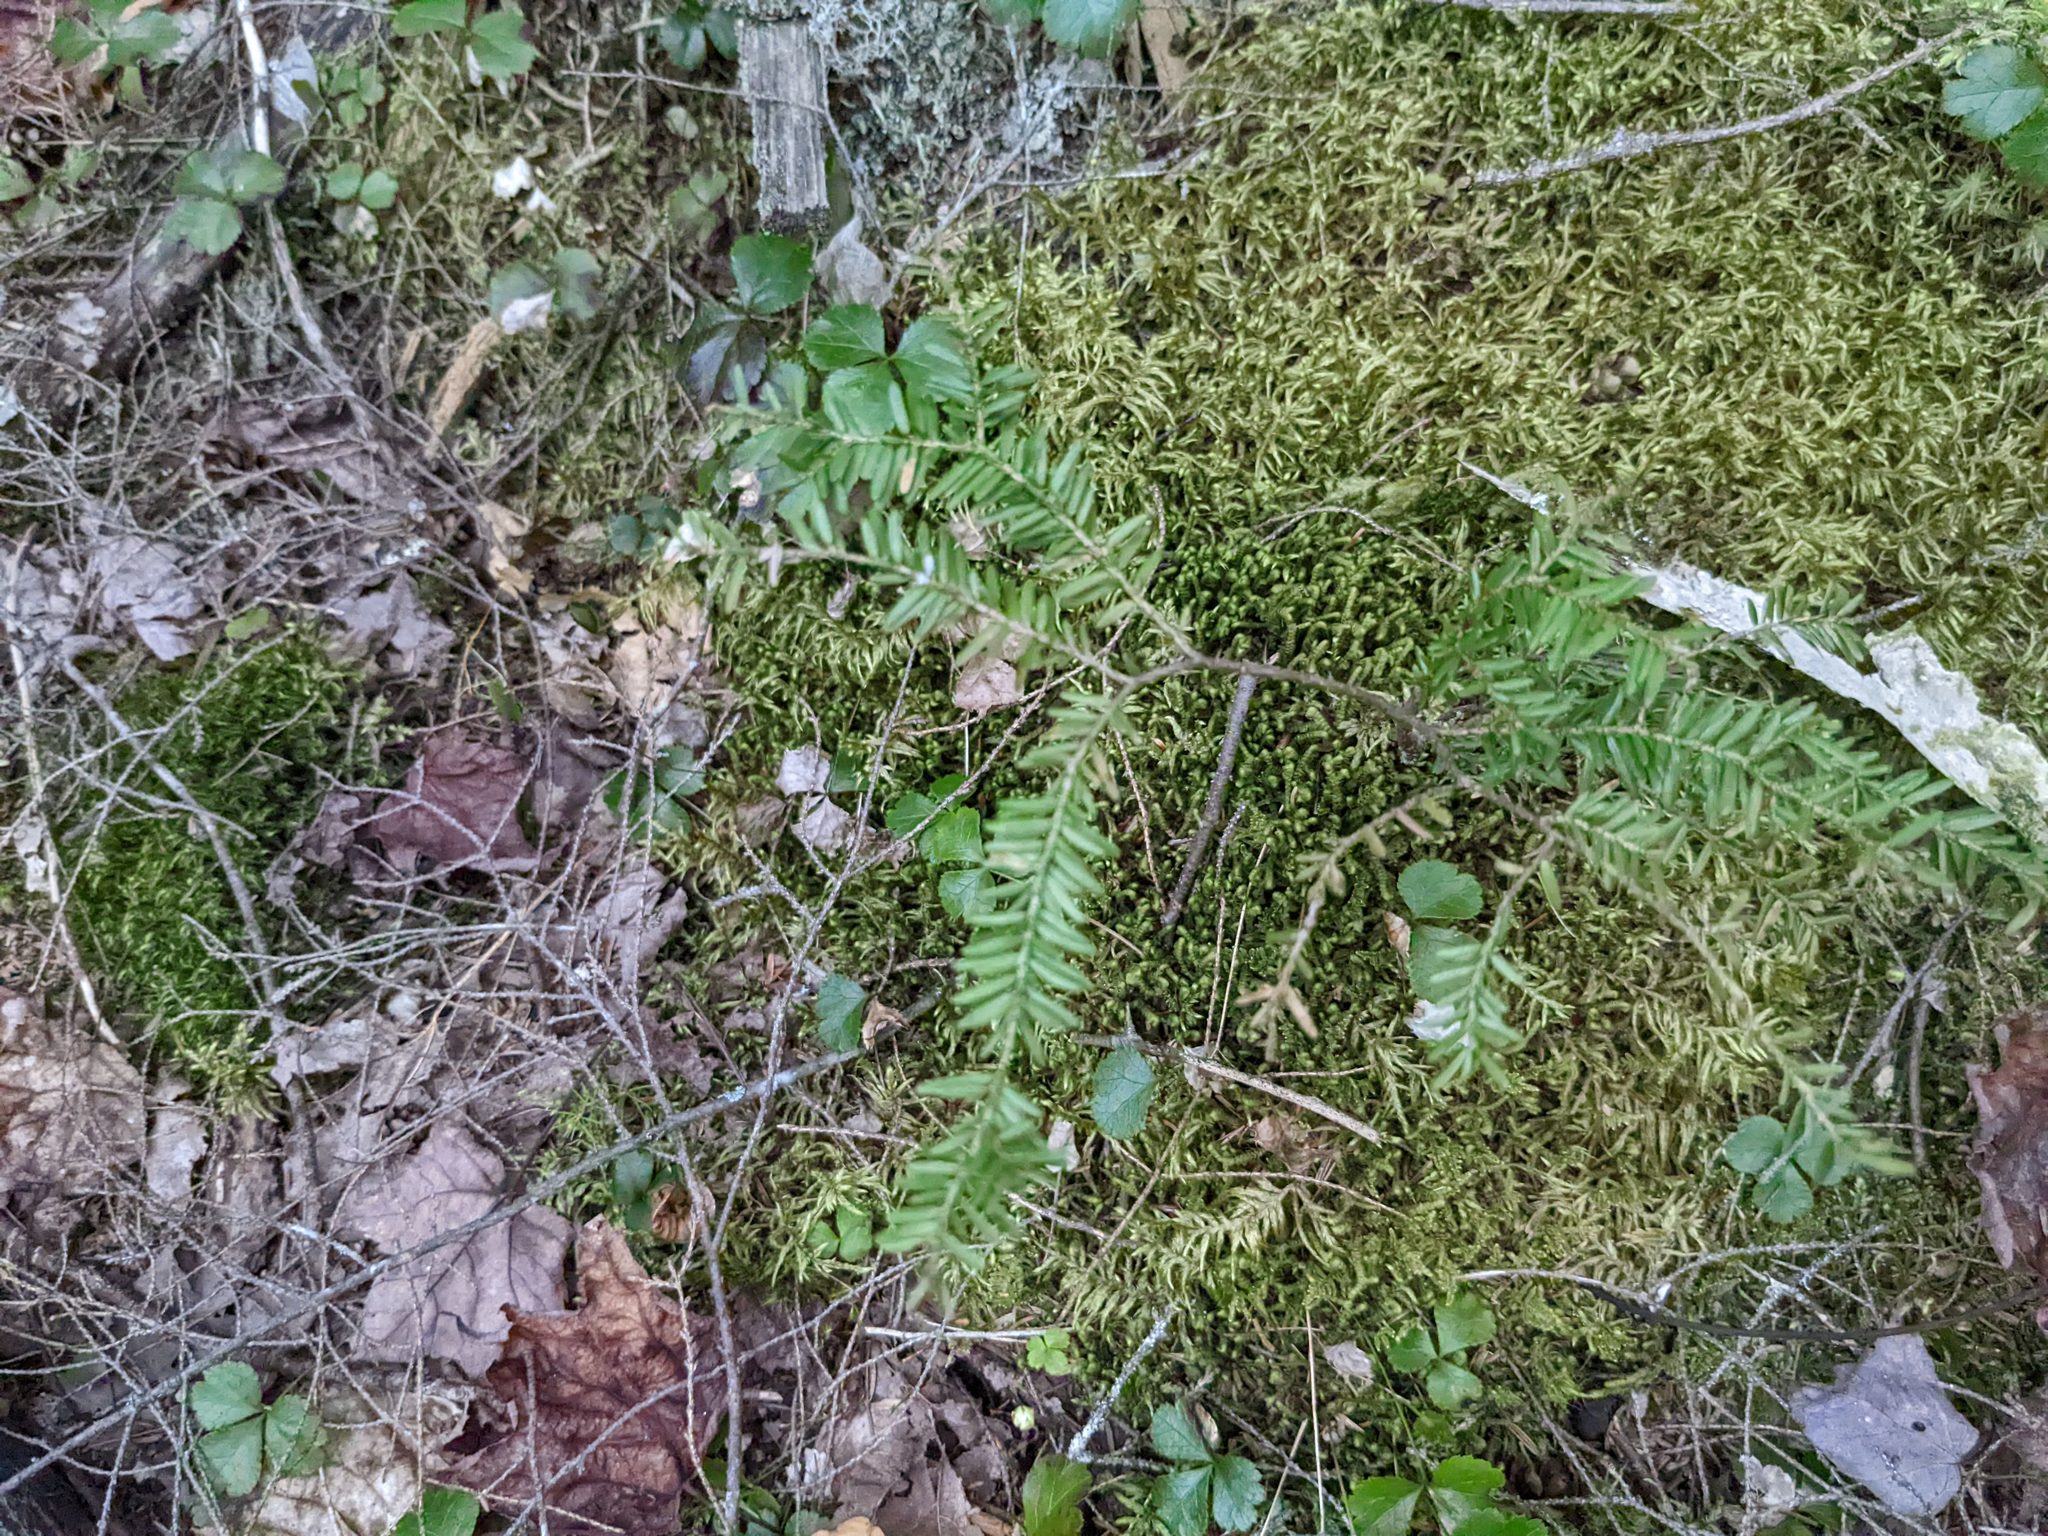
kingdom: Plantae
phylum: Tracheophyta
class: Pinopsida
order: Pinales
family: Pinaceae
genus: Tsuga
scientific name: Tsuga canadensis
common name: Eastern hemlock
